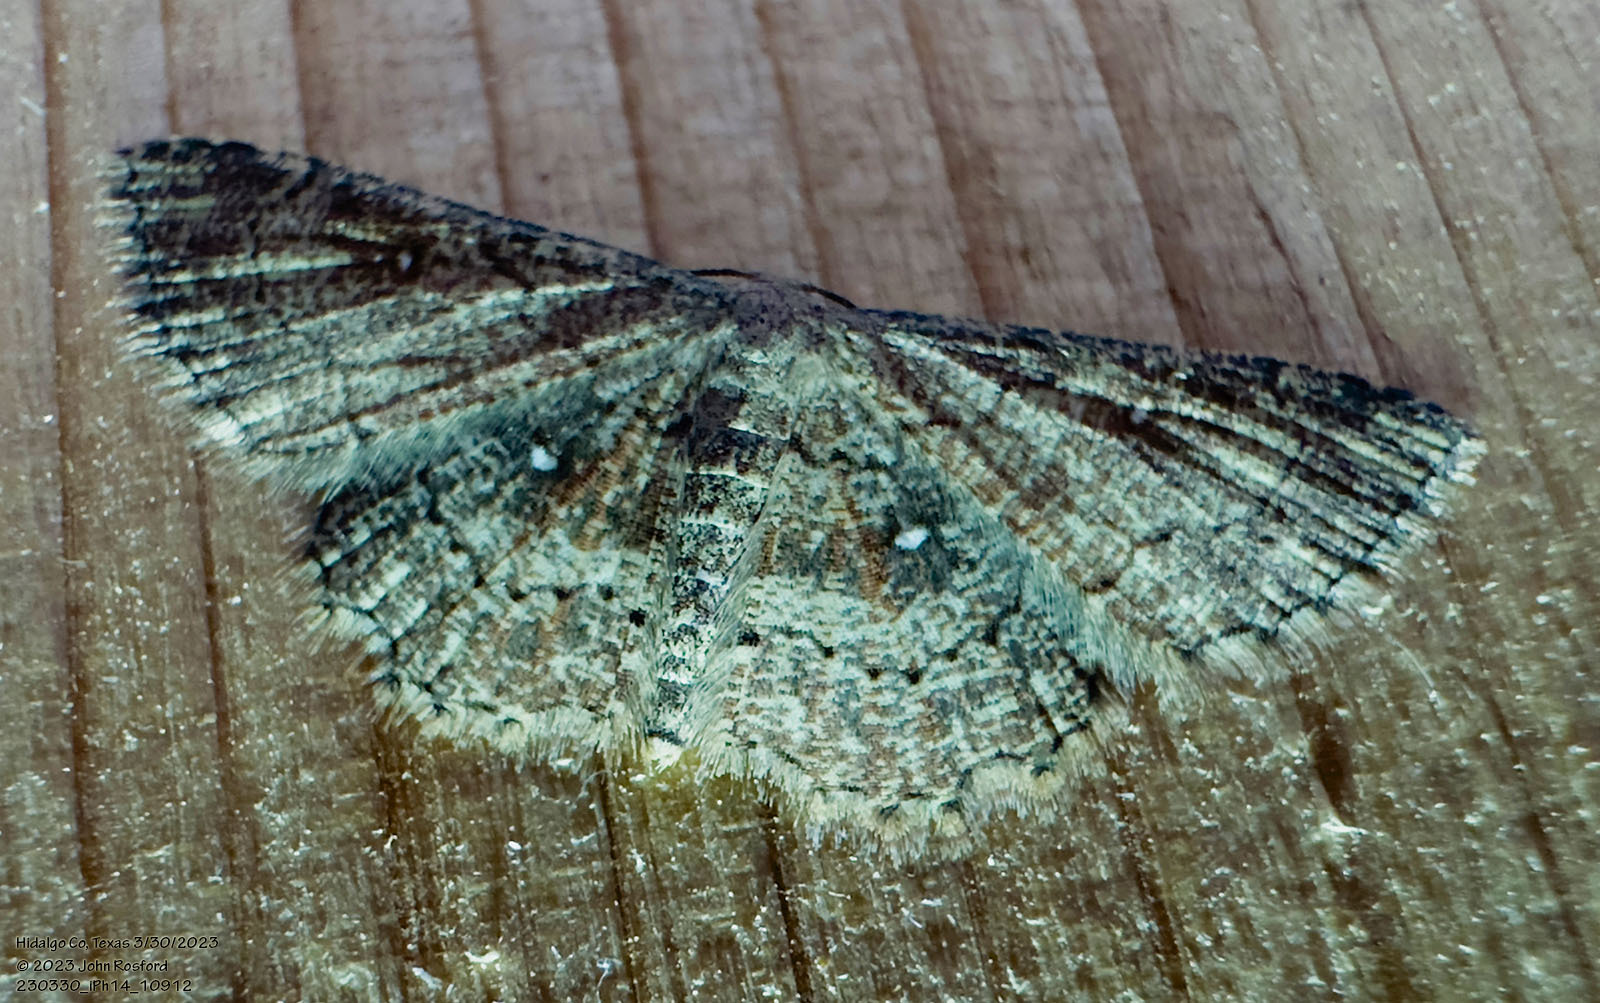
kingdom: Animalia
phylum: Arthropoda
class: Insecta
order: Lepidoptera
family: Geometridae
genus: Cyclophora
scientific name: Cyclophora nanaria
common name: Cankerworm
